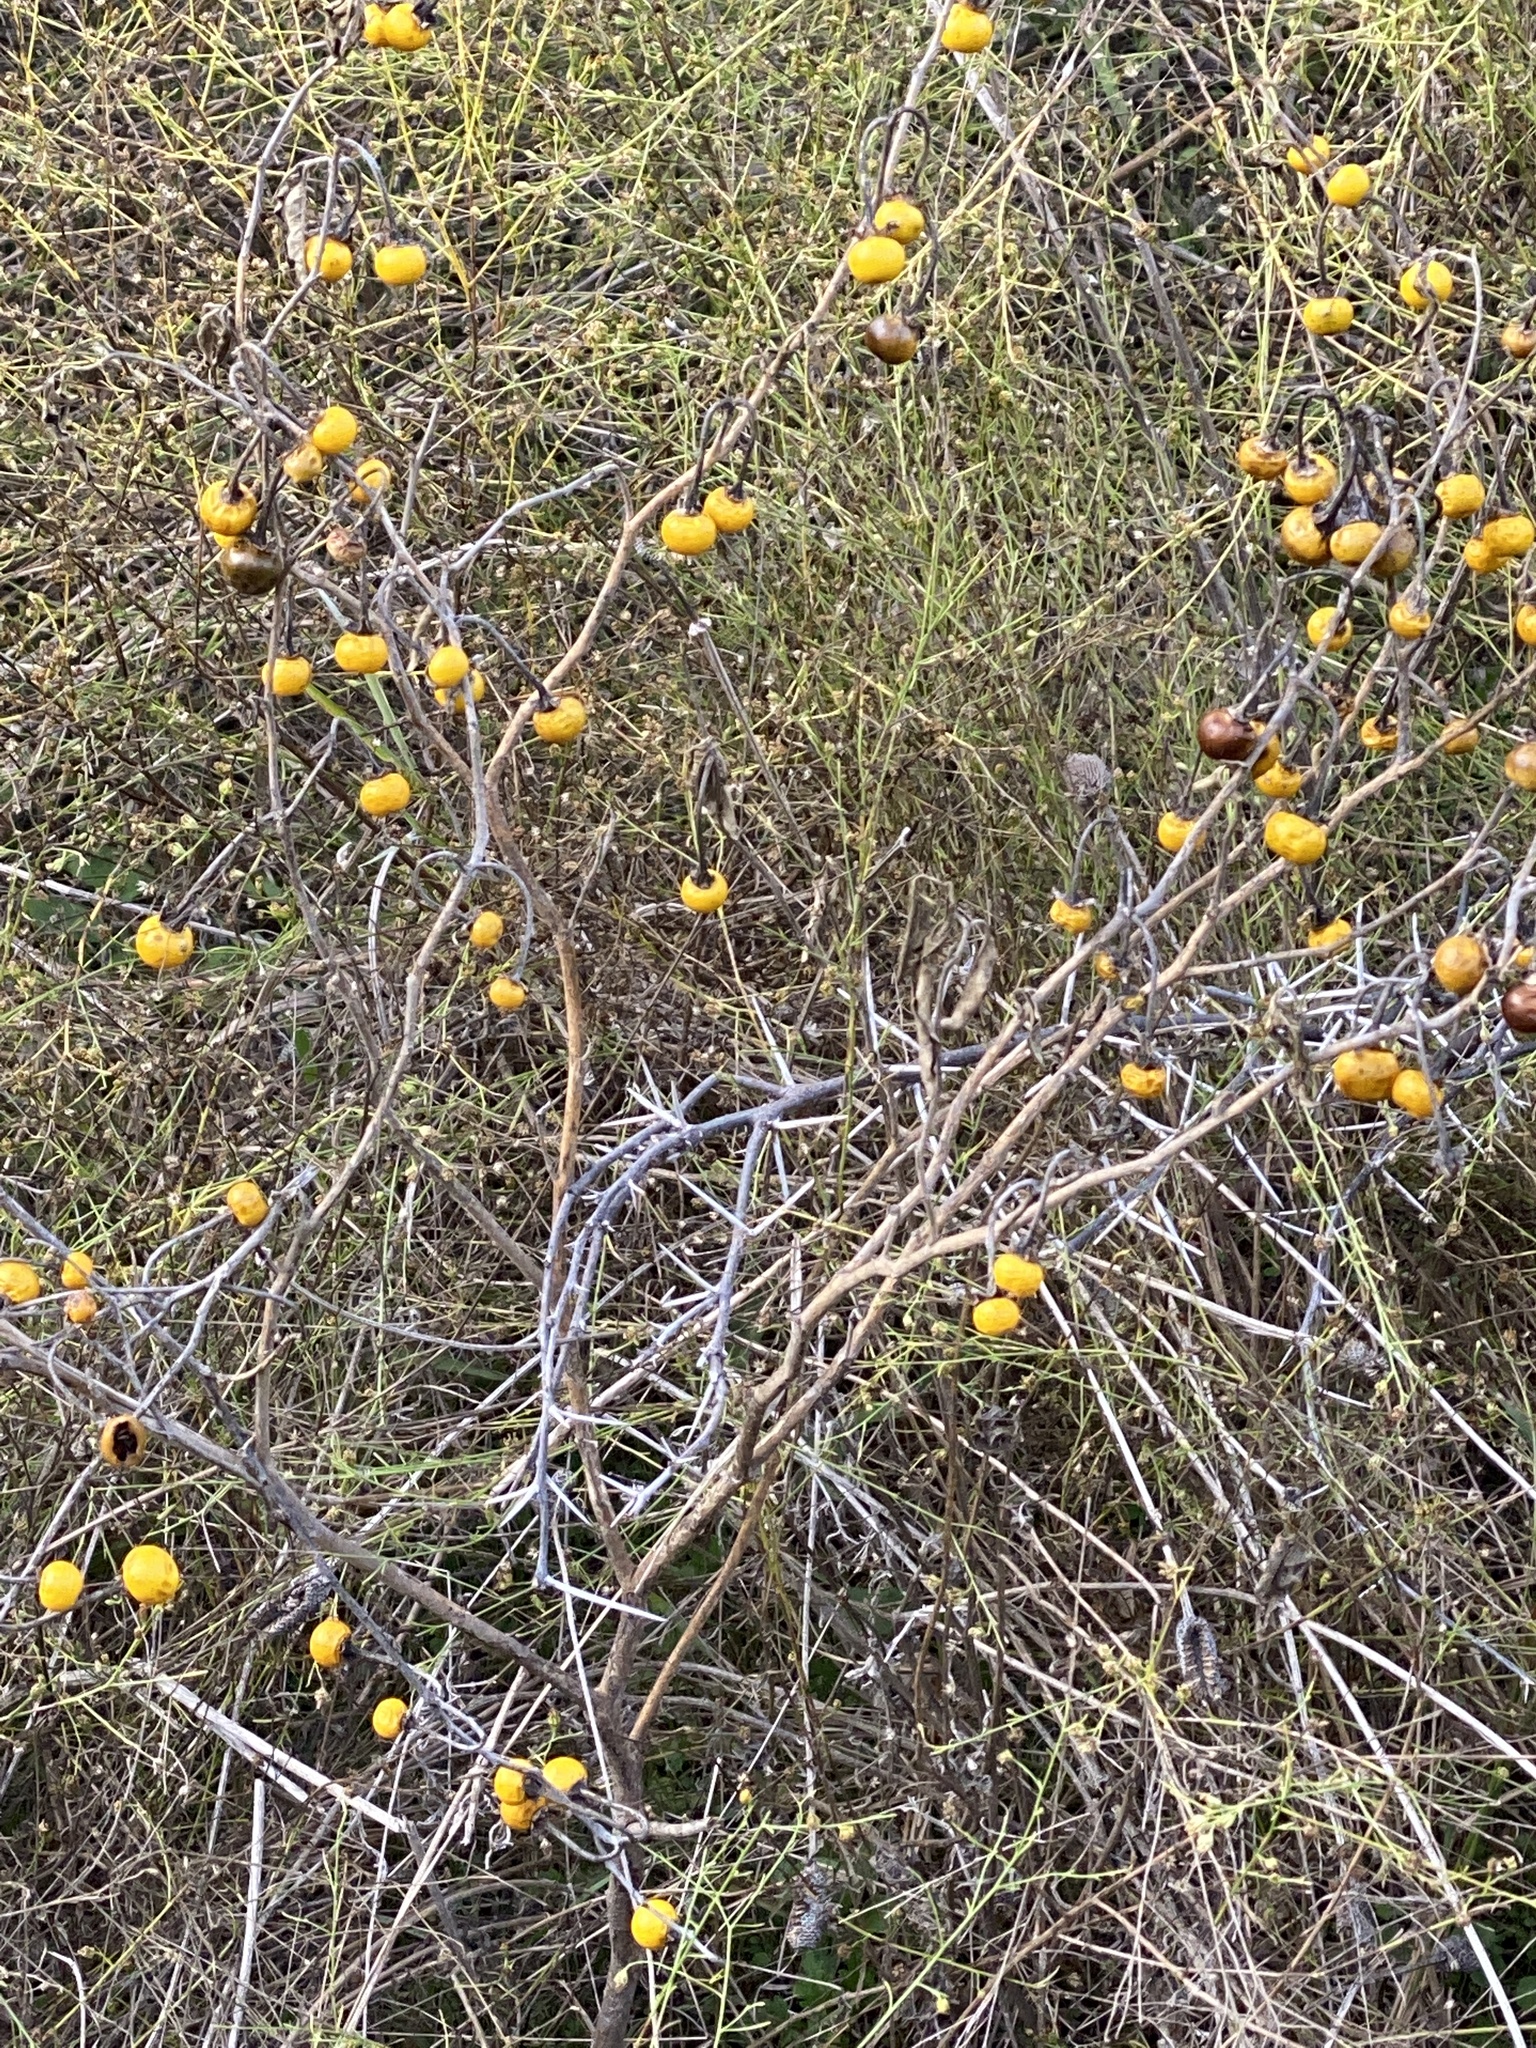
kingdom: Plantae
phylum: Tracheophyta
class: Magnoliopsida
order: Solanales
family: Solanaceae
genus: Solanum
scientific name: Solanum elaeagnifolium
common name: Silverleaf nightshade
